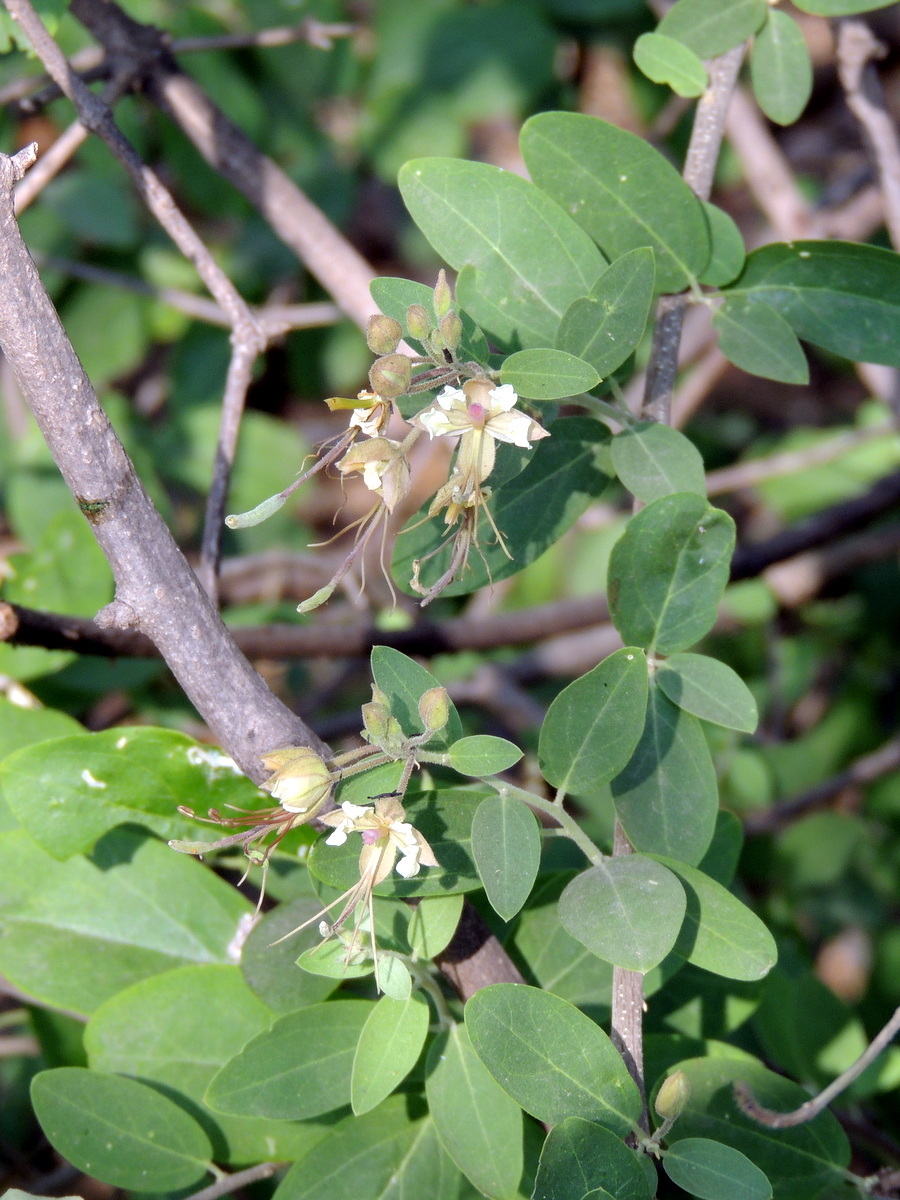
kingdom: Plantae
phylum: Tracheophyta
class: Magnoliopsida
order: Brassicales
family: Capparaceae
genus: Cadaba
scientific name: Cadaba fruticosa
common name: Indian cadaba
